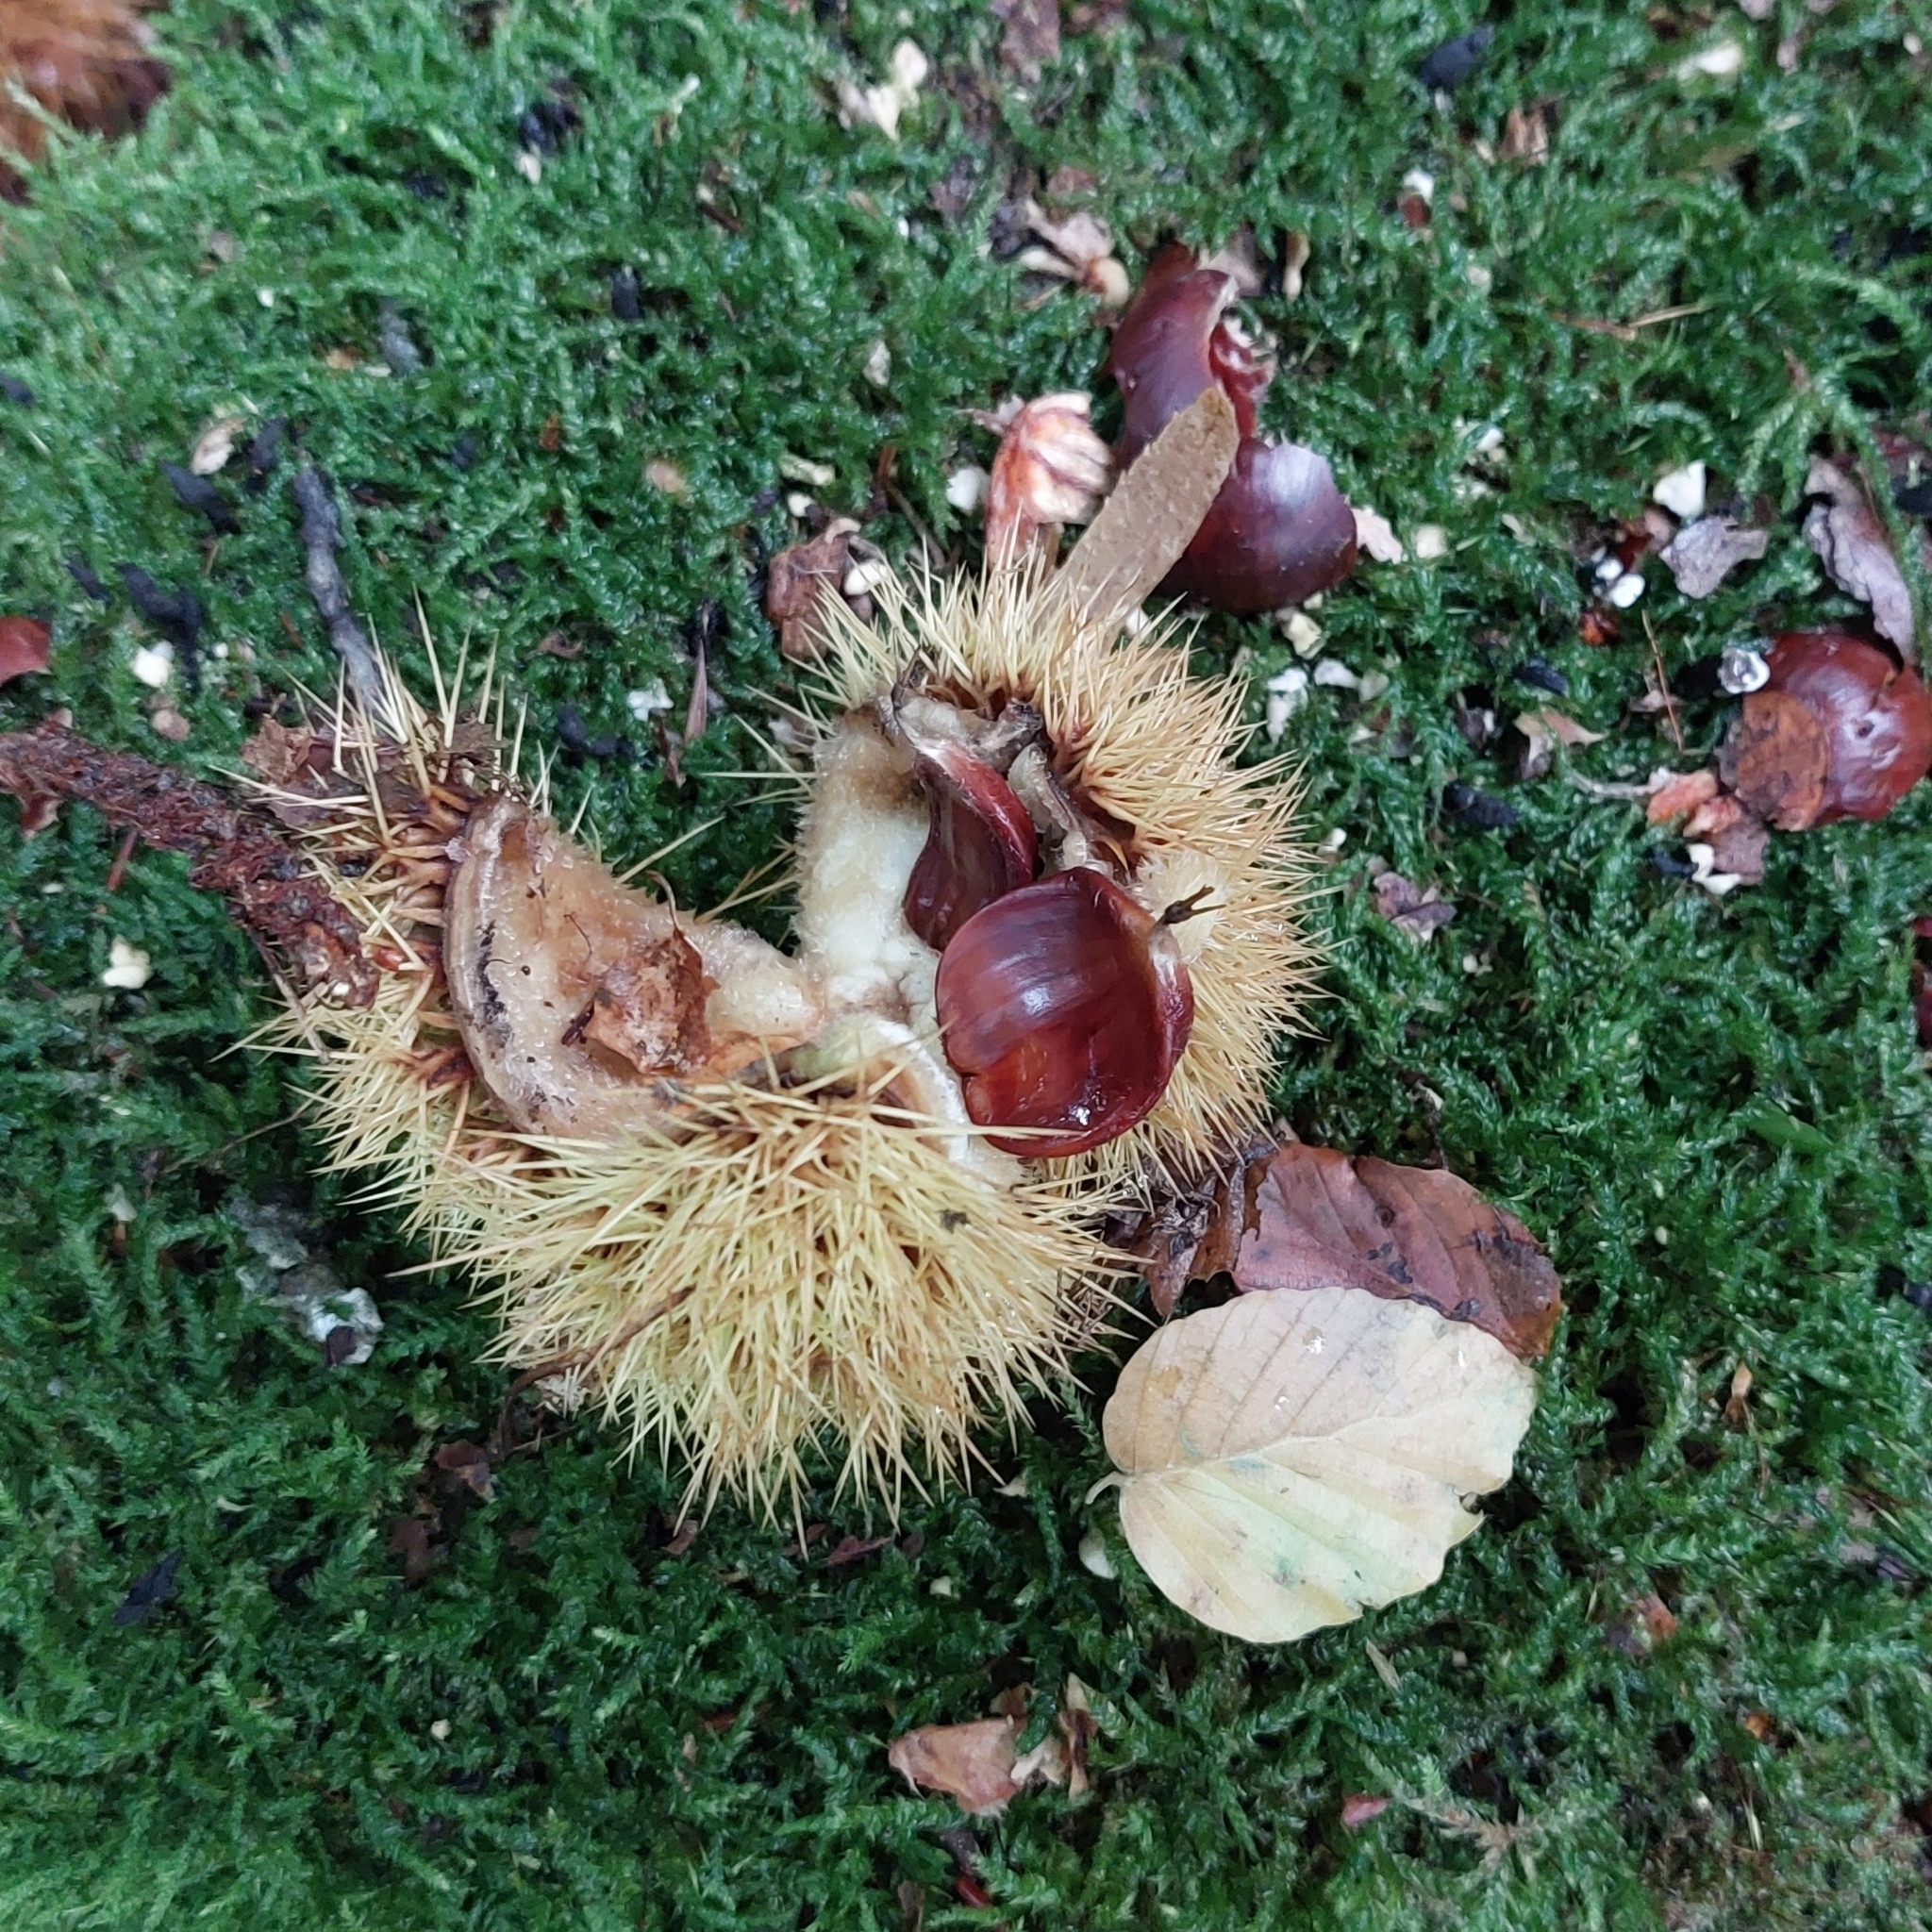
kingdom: Plantae
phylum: Tracheophyta
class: Magnoliopsida
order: Fagales
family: Fagaceae
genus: Castanea
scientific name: Castanea sativa
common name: Sweet chestnut
